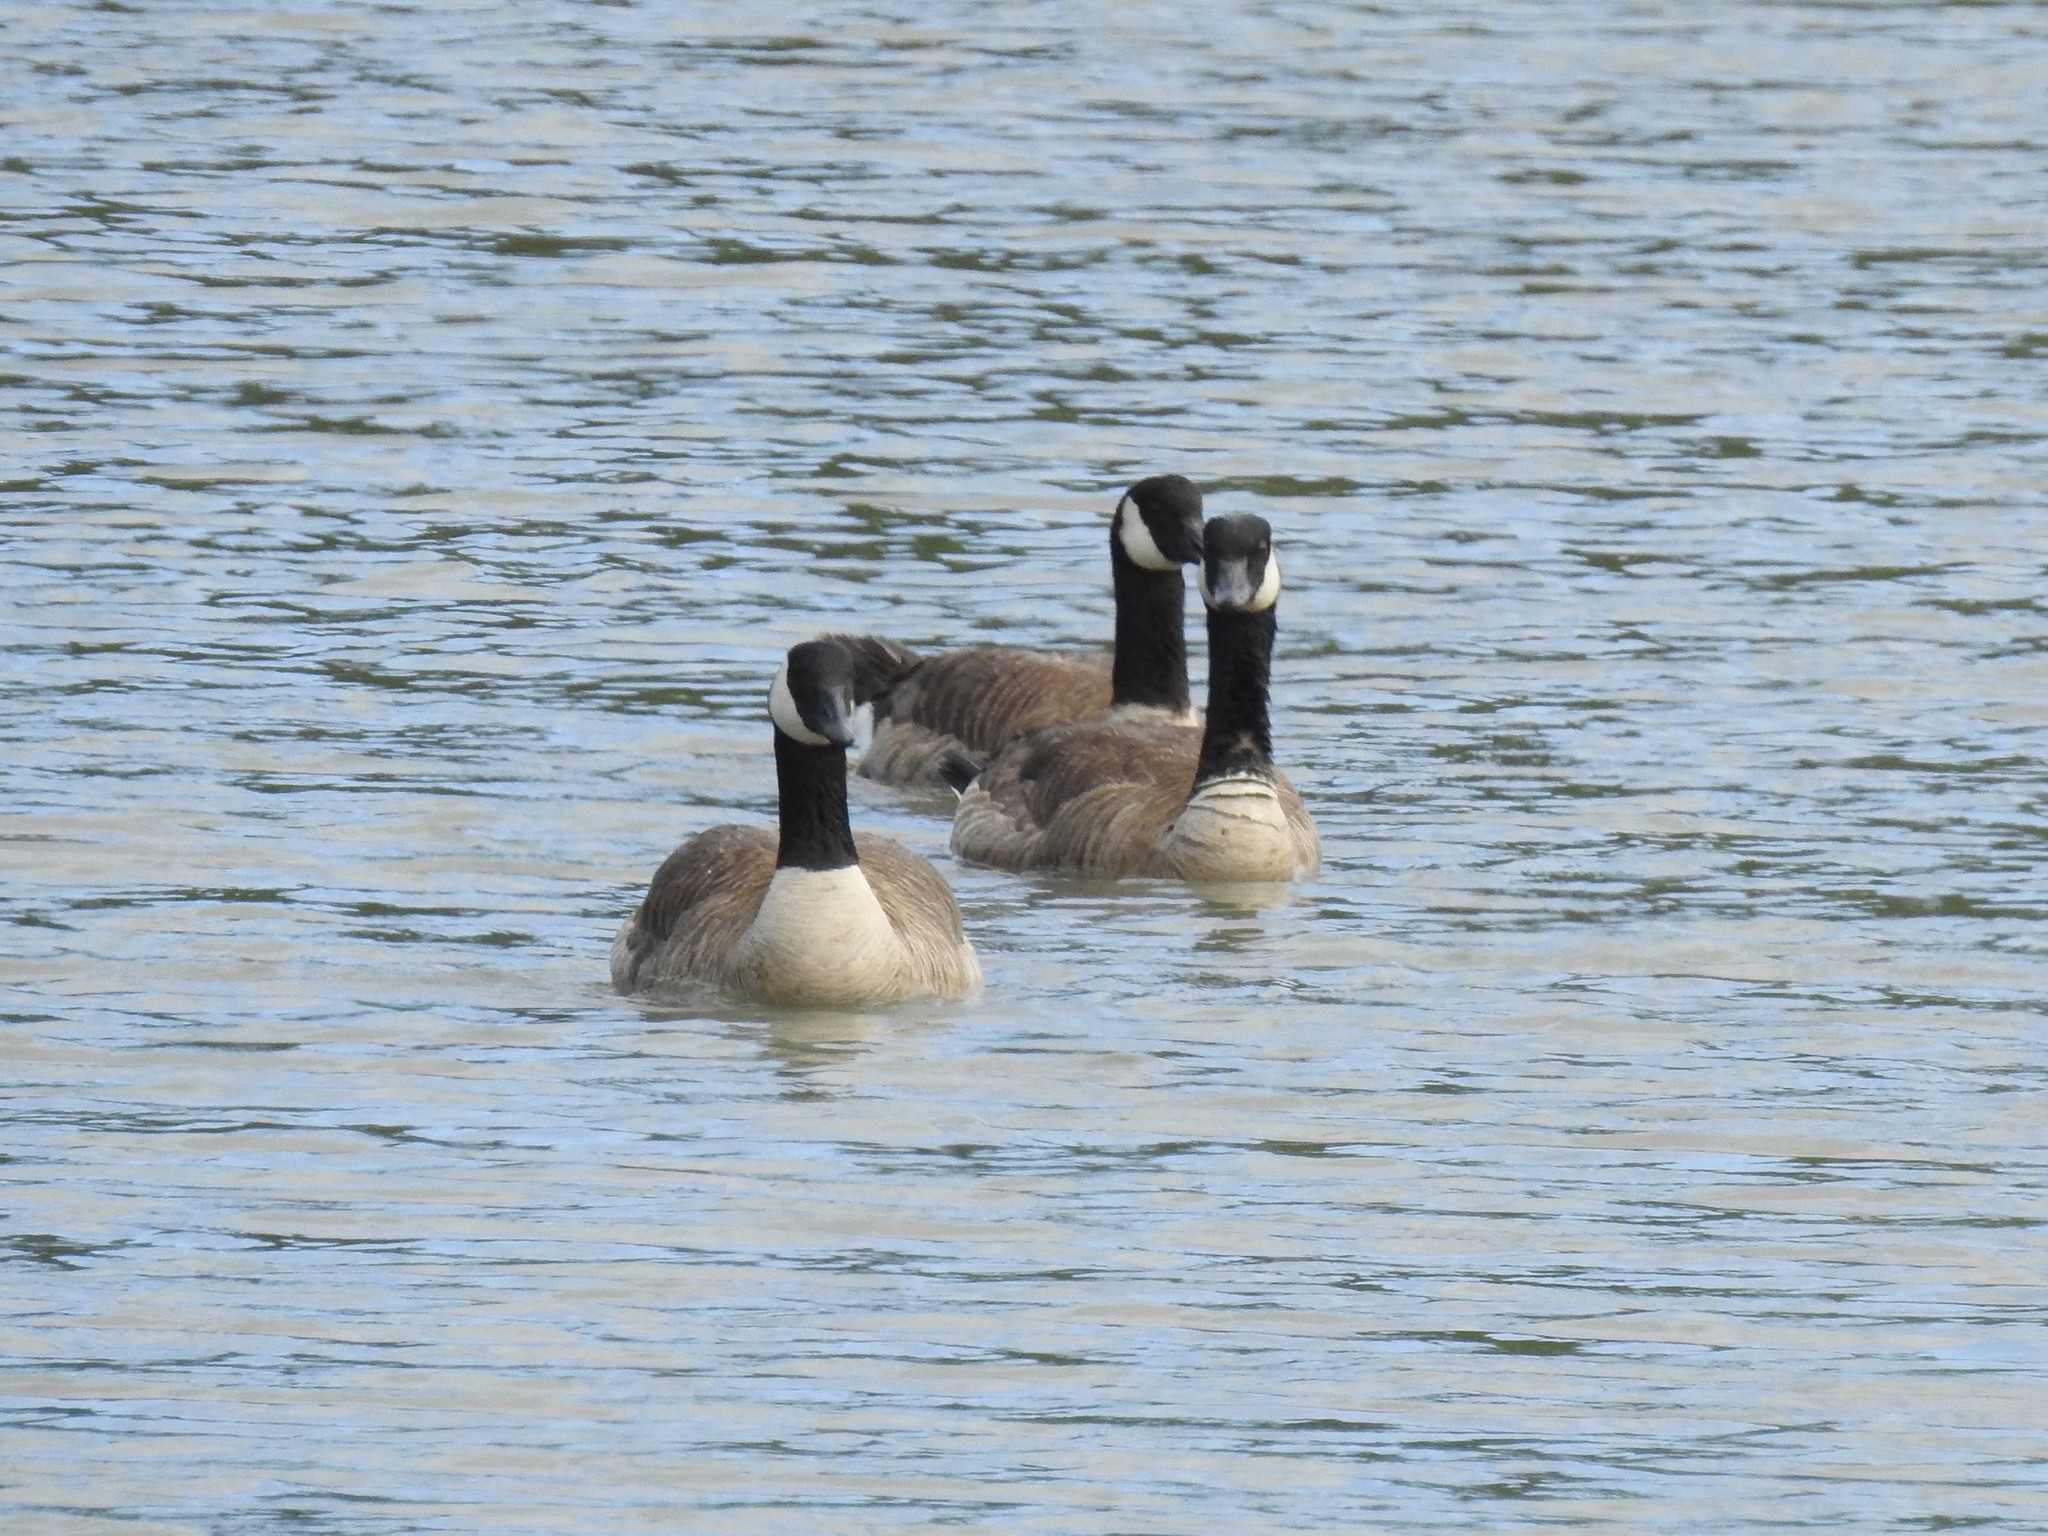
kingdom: Animalia
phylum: Chordata
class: Aves
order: Anseriformes
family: Anatidae
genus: Branta
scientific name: Branta canadensis
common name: Canada goose
